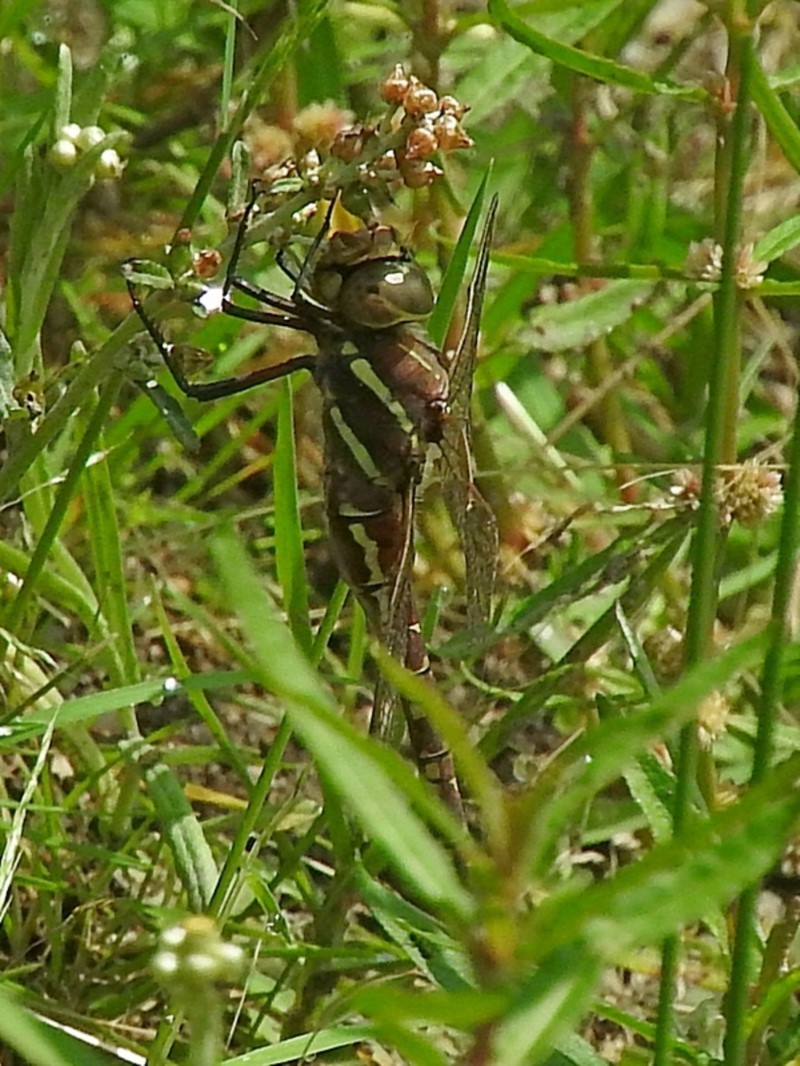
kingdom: Animalia
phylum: Arthropoda
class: Insecta
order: Odonata
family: Aeshnidae
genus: Aeshna
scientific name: Aeshna brevistyla
